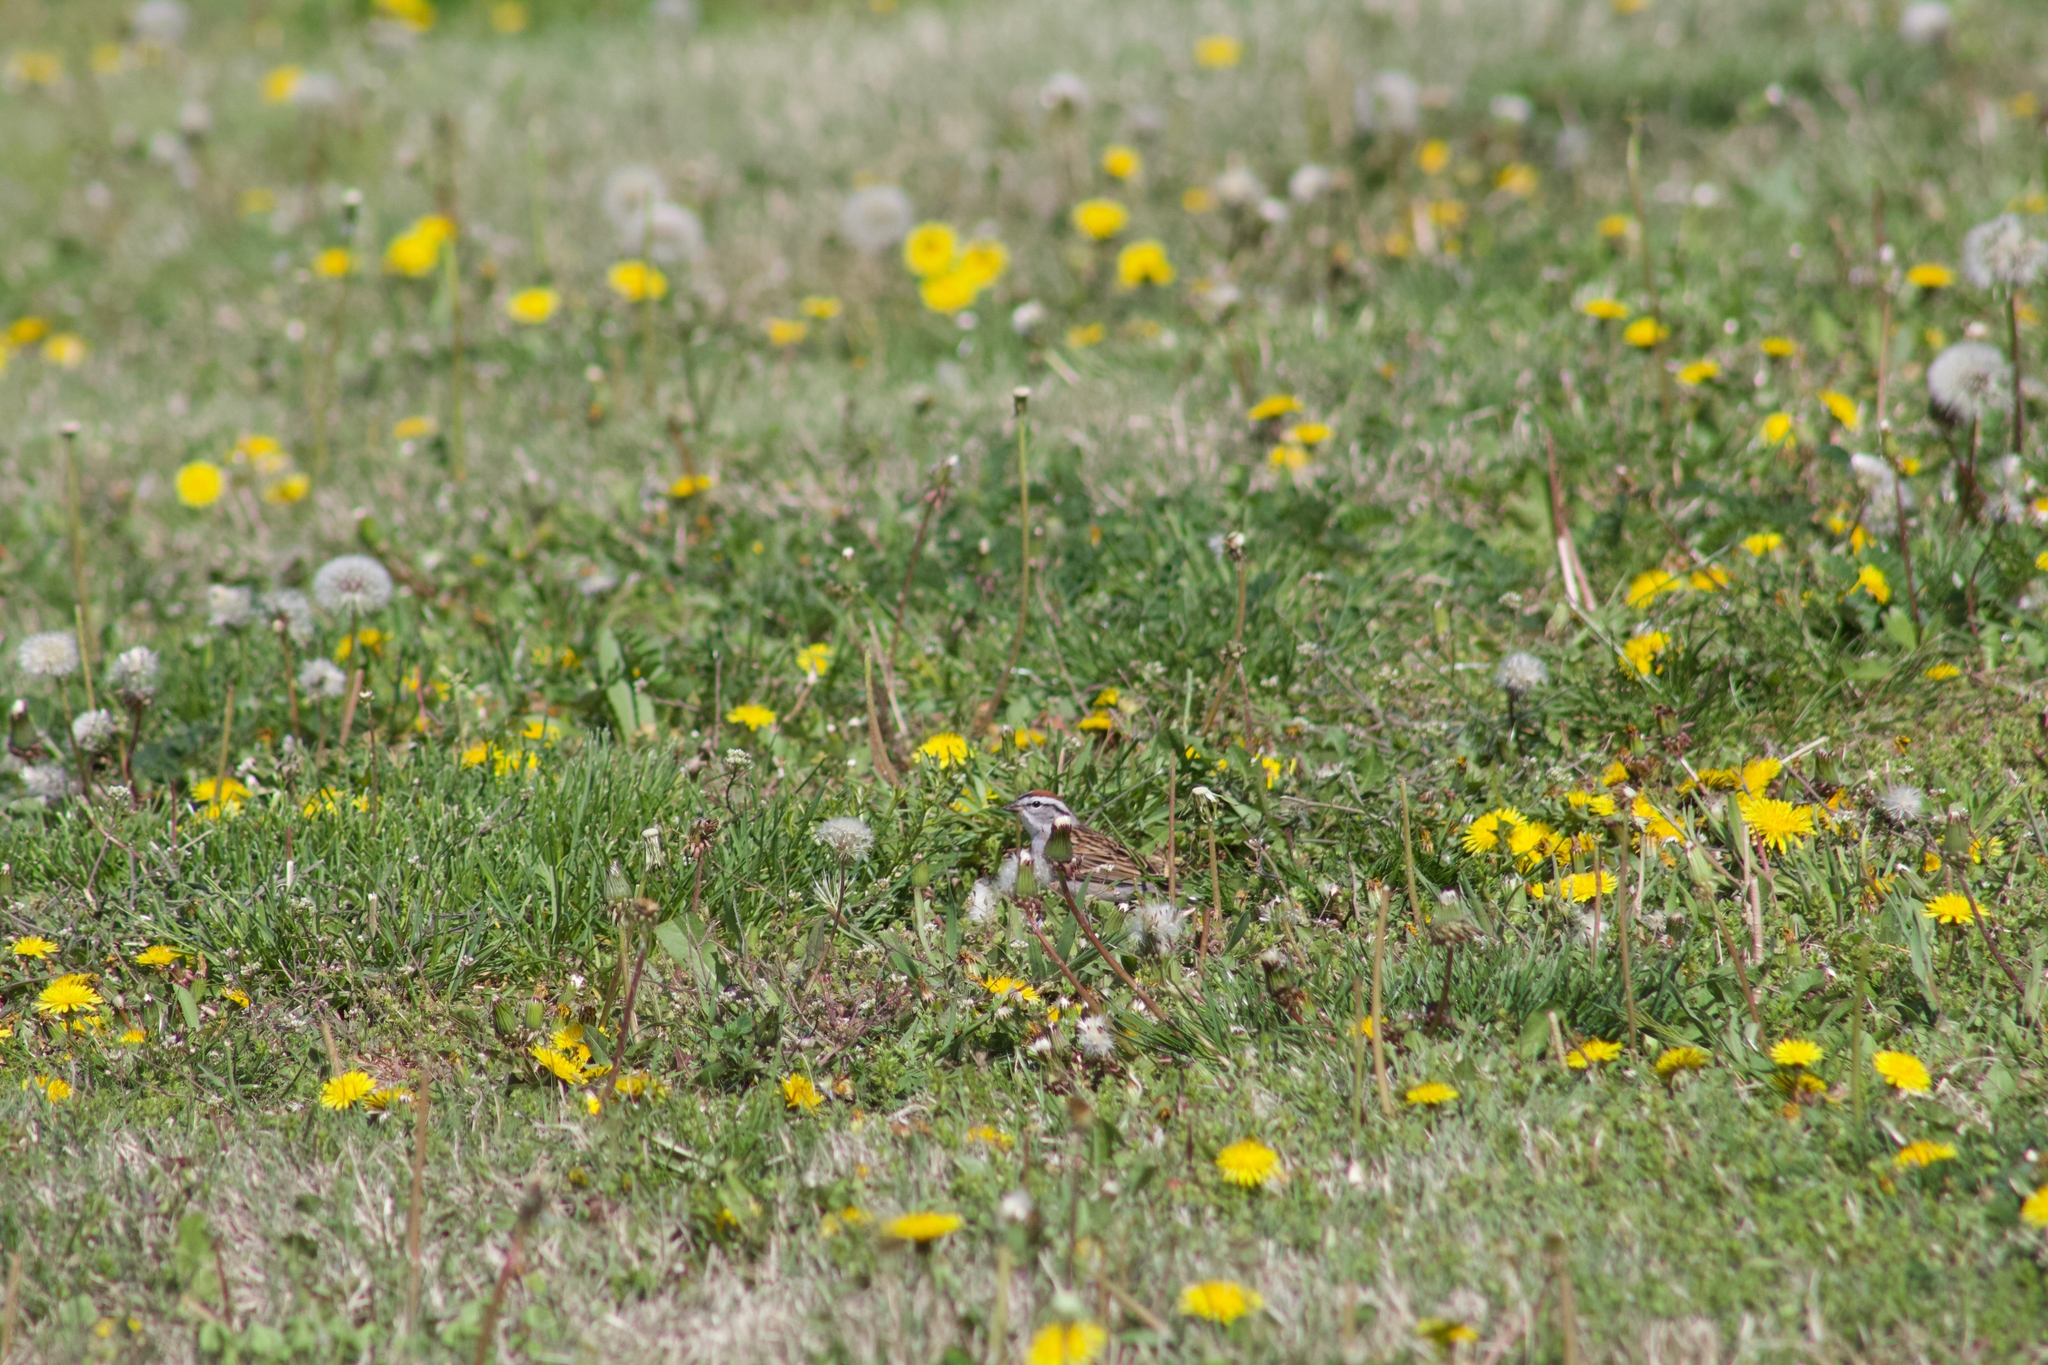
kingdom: Animalia
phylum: Chordata
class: Aves
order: Passeriformes
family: Passerellidae
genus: Spizella
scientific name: Spizella passerina
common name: Chipping sparrow
